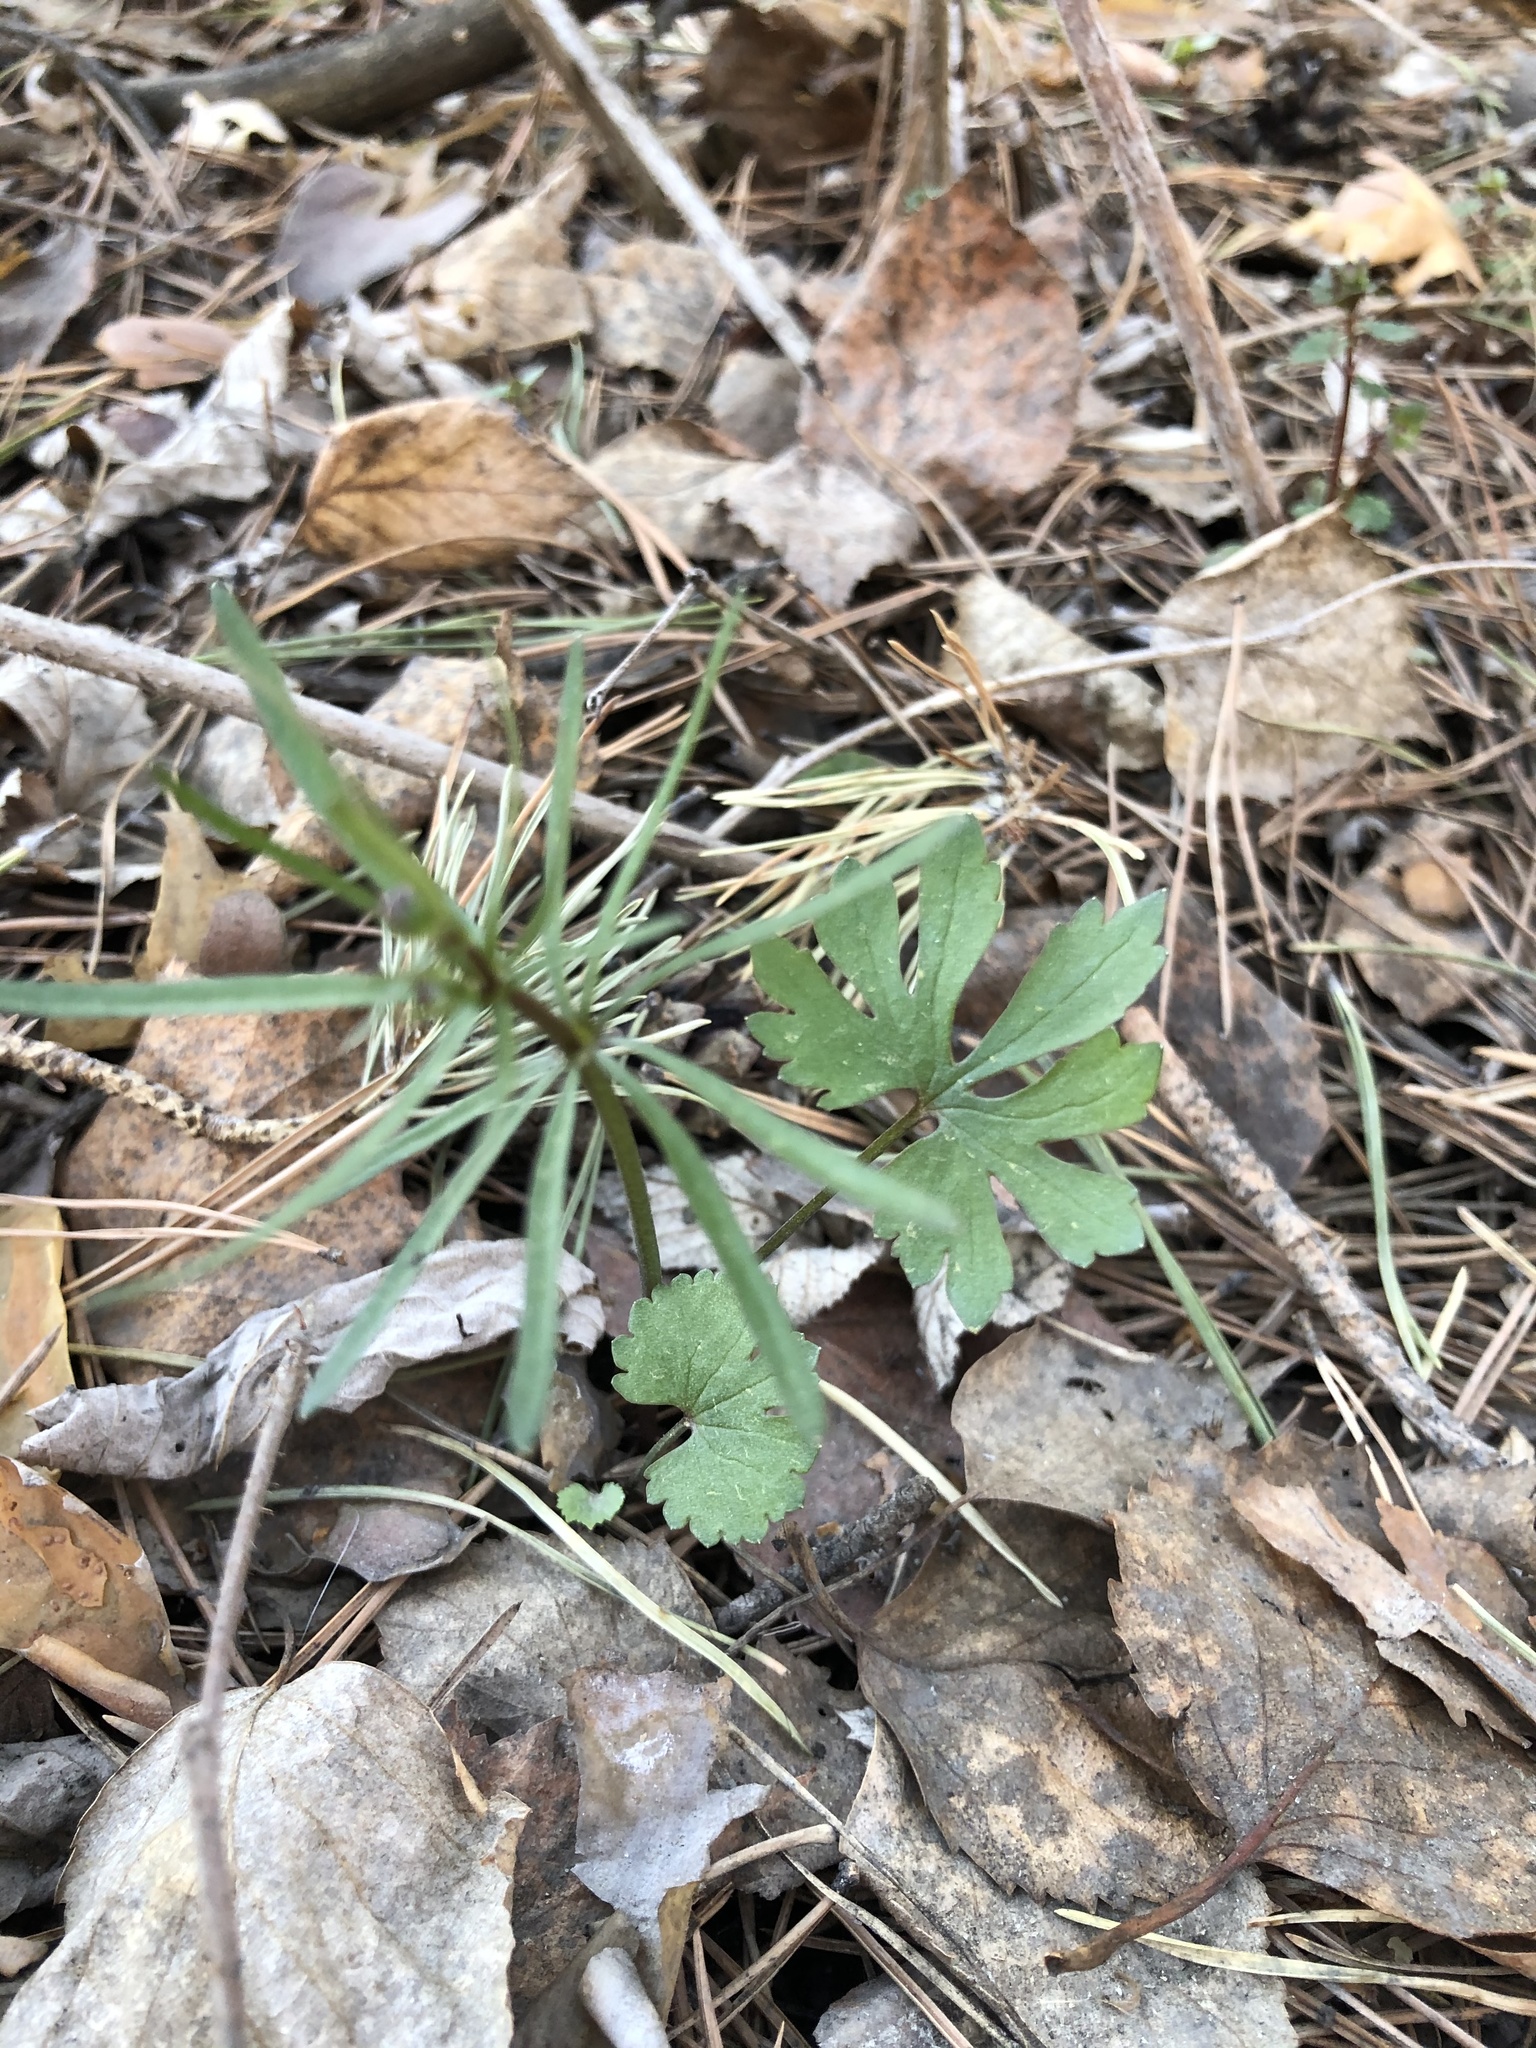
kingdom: Plantae
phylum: Tracheophyta
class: Magnoliopsida
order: Ranunculales
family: Ranunculaceae
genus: Ranunculus
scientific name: Ranunculus auricomus
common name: Goldilocks buttercup
